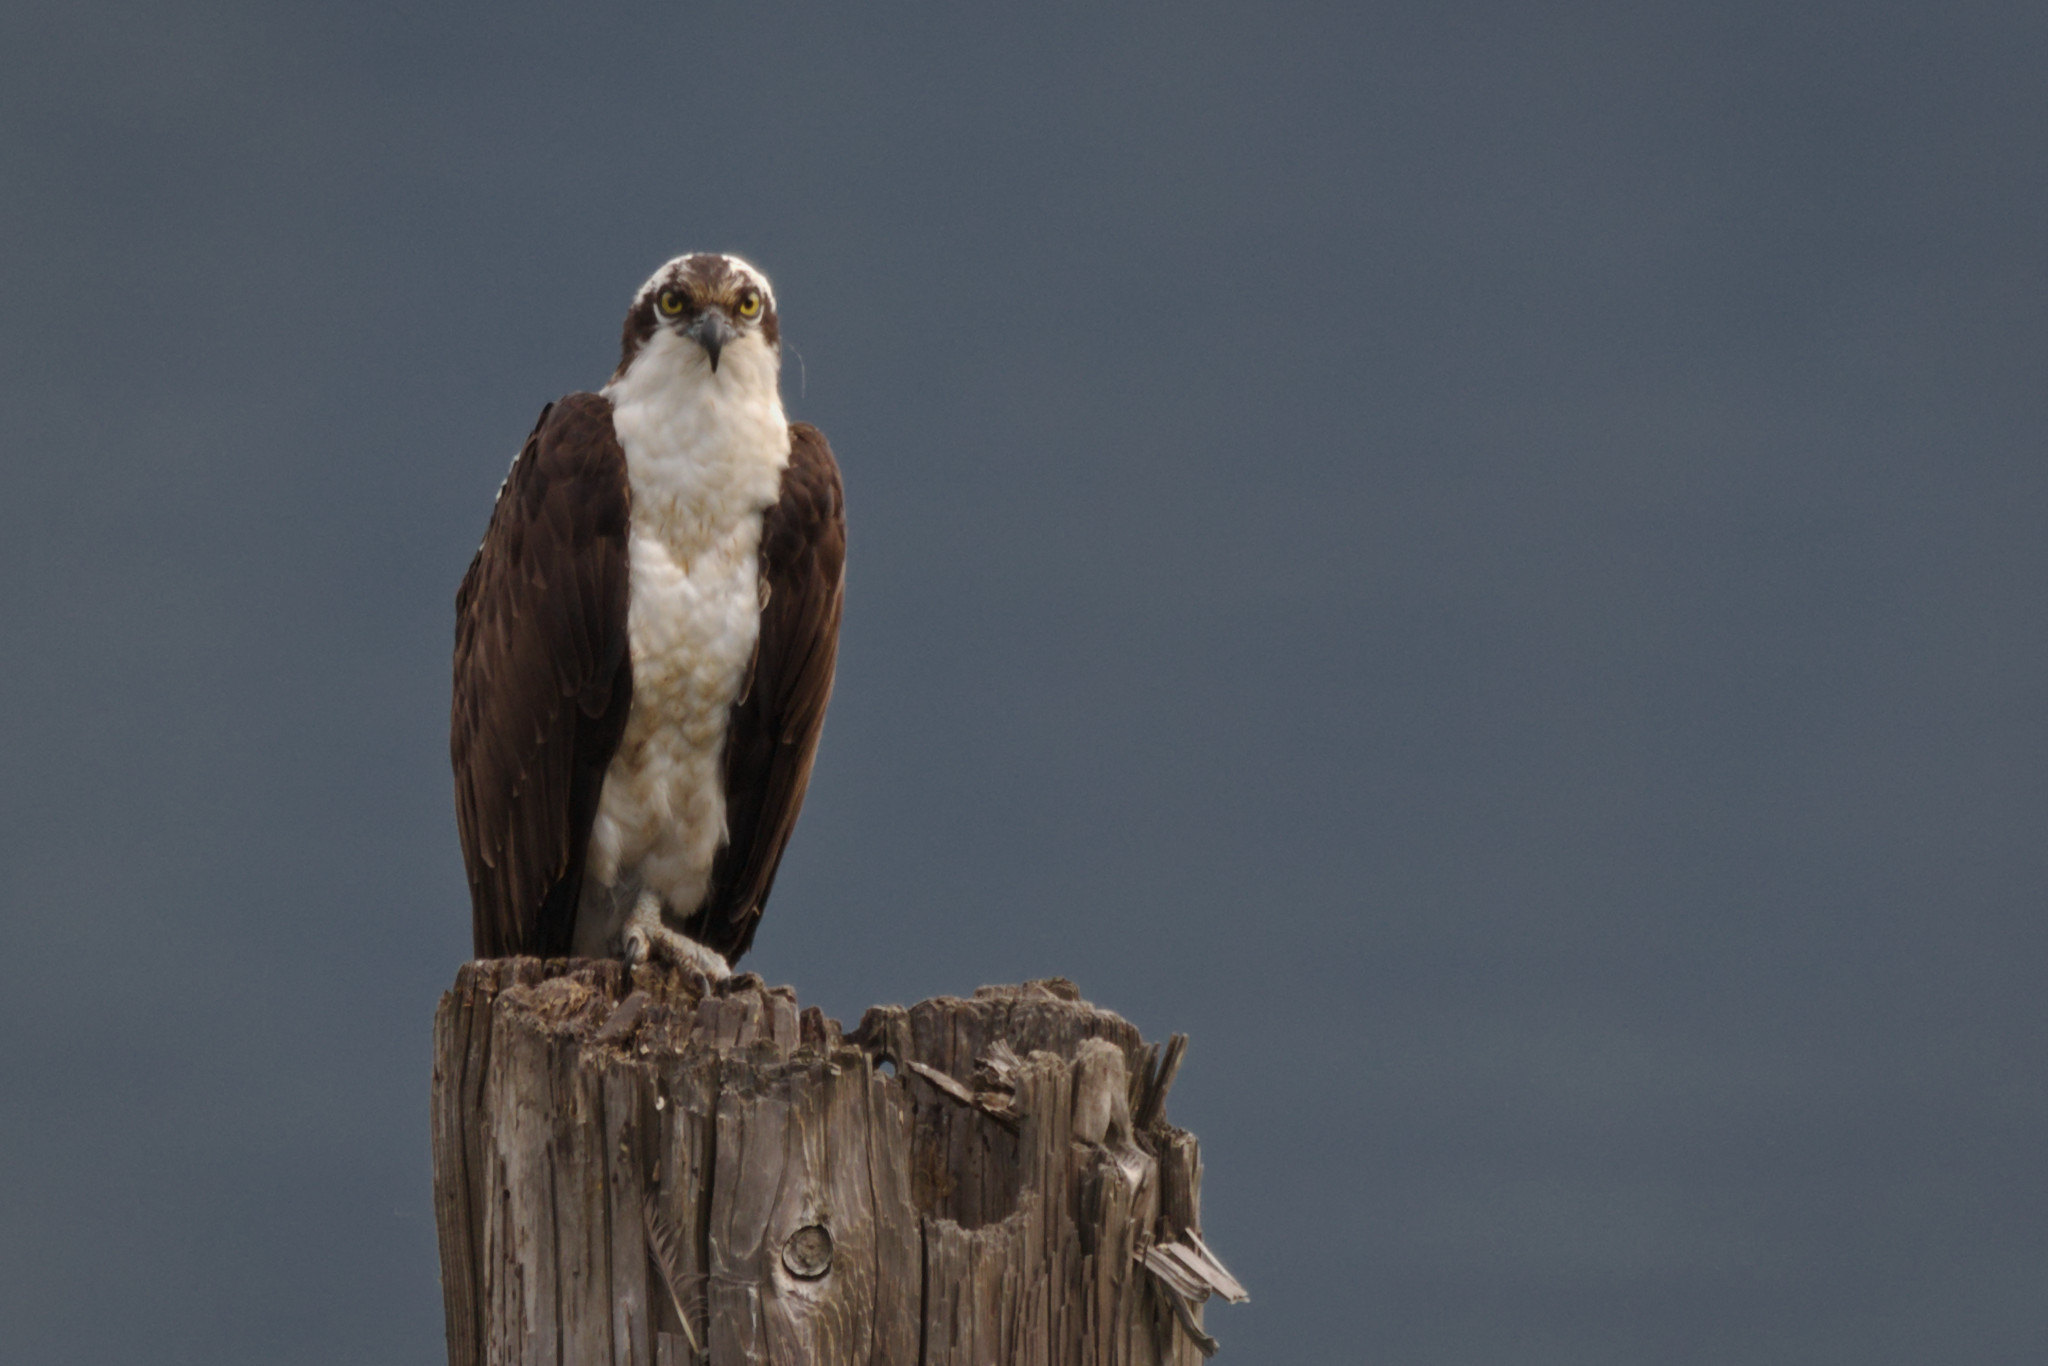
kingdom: Animalia
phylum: Chordata
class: Aves
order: Accipitriformes
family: Pandionidae
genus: Pandion
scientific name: Pandion haliaetus
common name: Osprey
